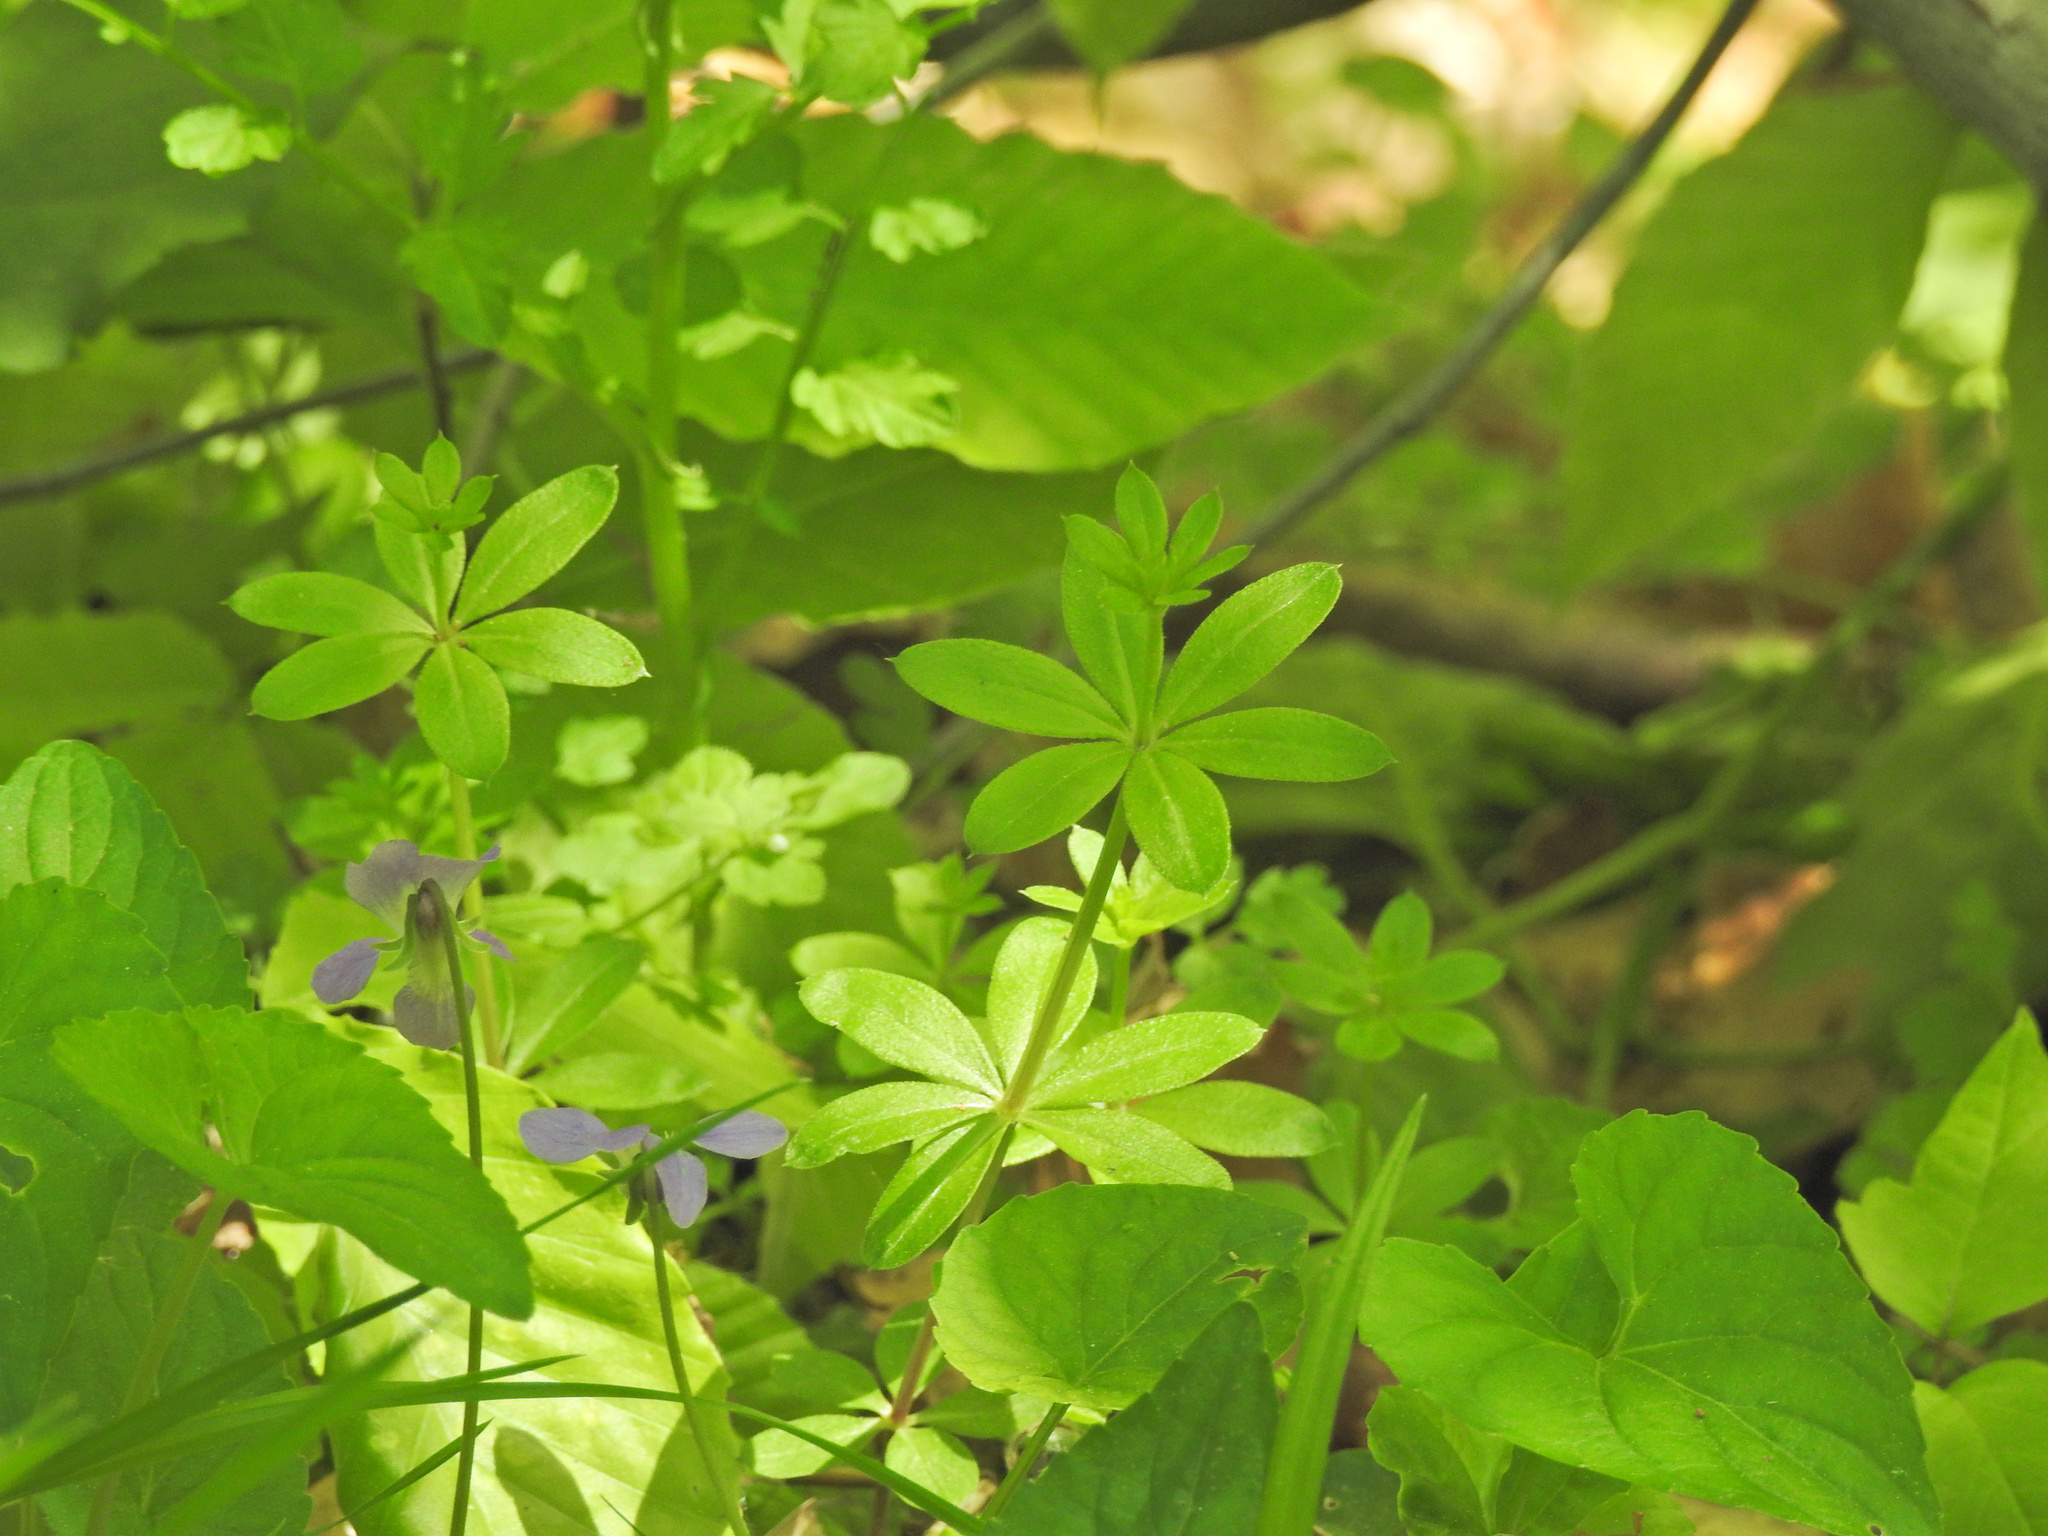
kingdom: Plantae
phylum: Tracheophyta
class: Magnoliopsida
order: Gentianales
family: Rubiaceae
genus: Galium
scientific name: Galium triflorum
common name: Fragrant bedstraw
